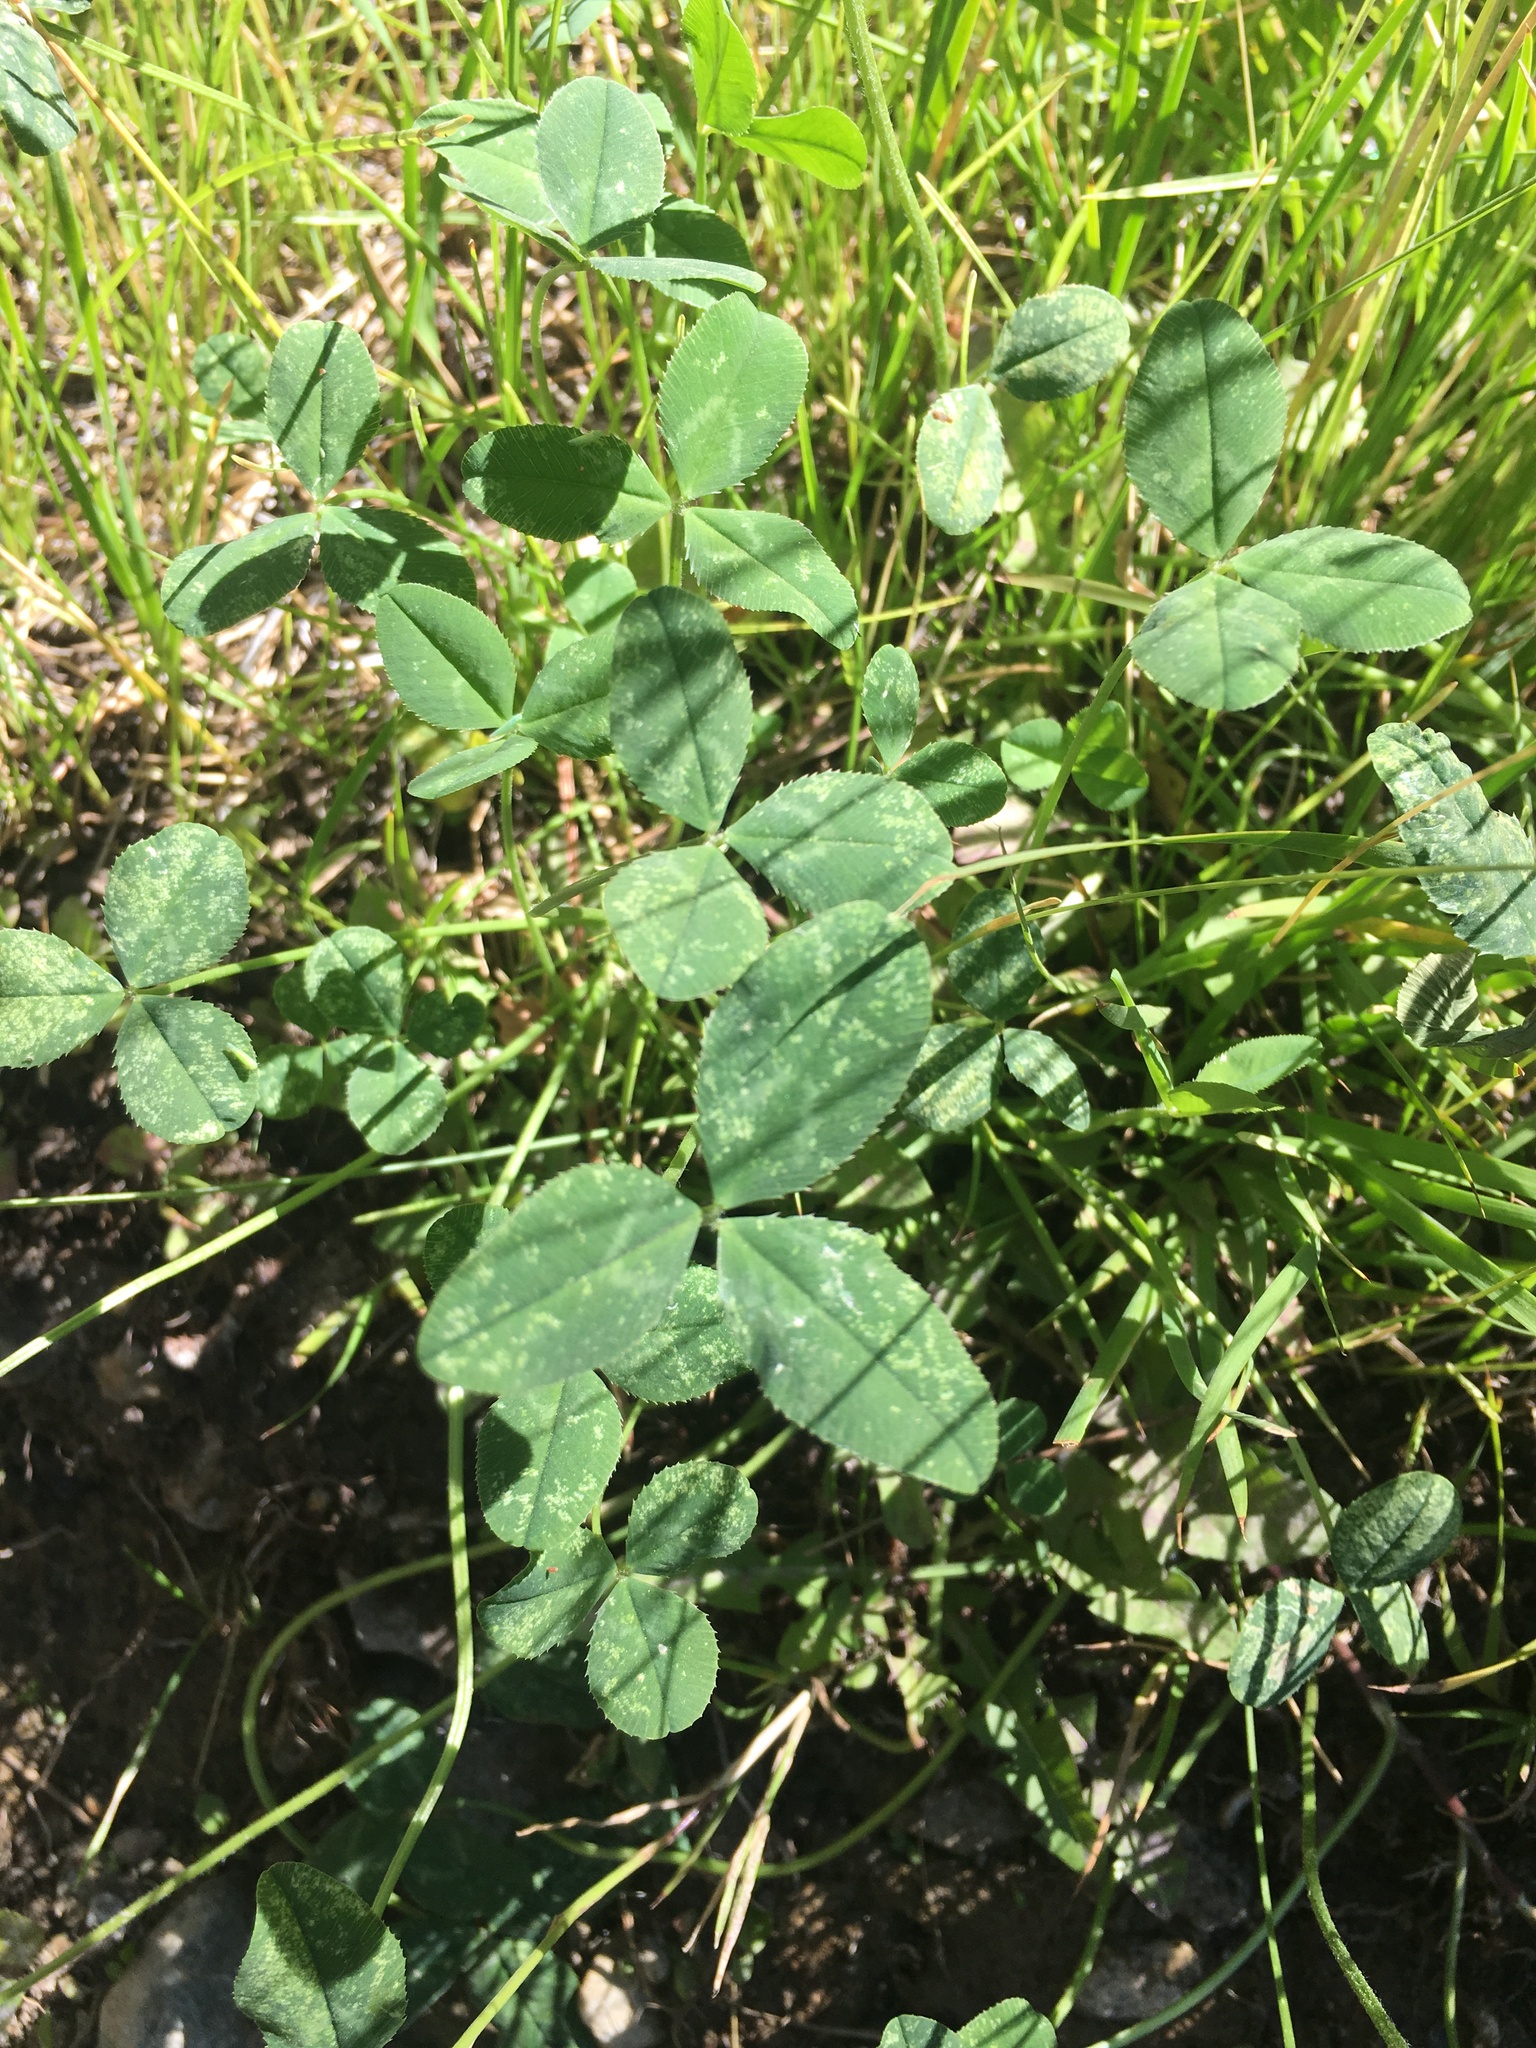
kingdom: Plantae
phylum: Tracheophyta
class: Magnoliopsida
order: Fabales
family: Fabaceae
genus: Trifolium
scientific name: Trifolium repens
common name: White clover
